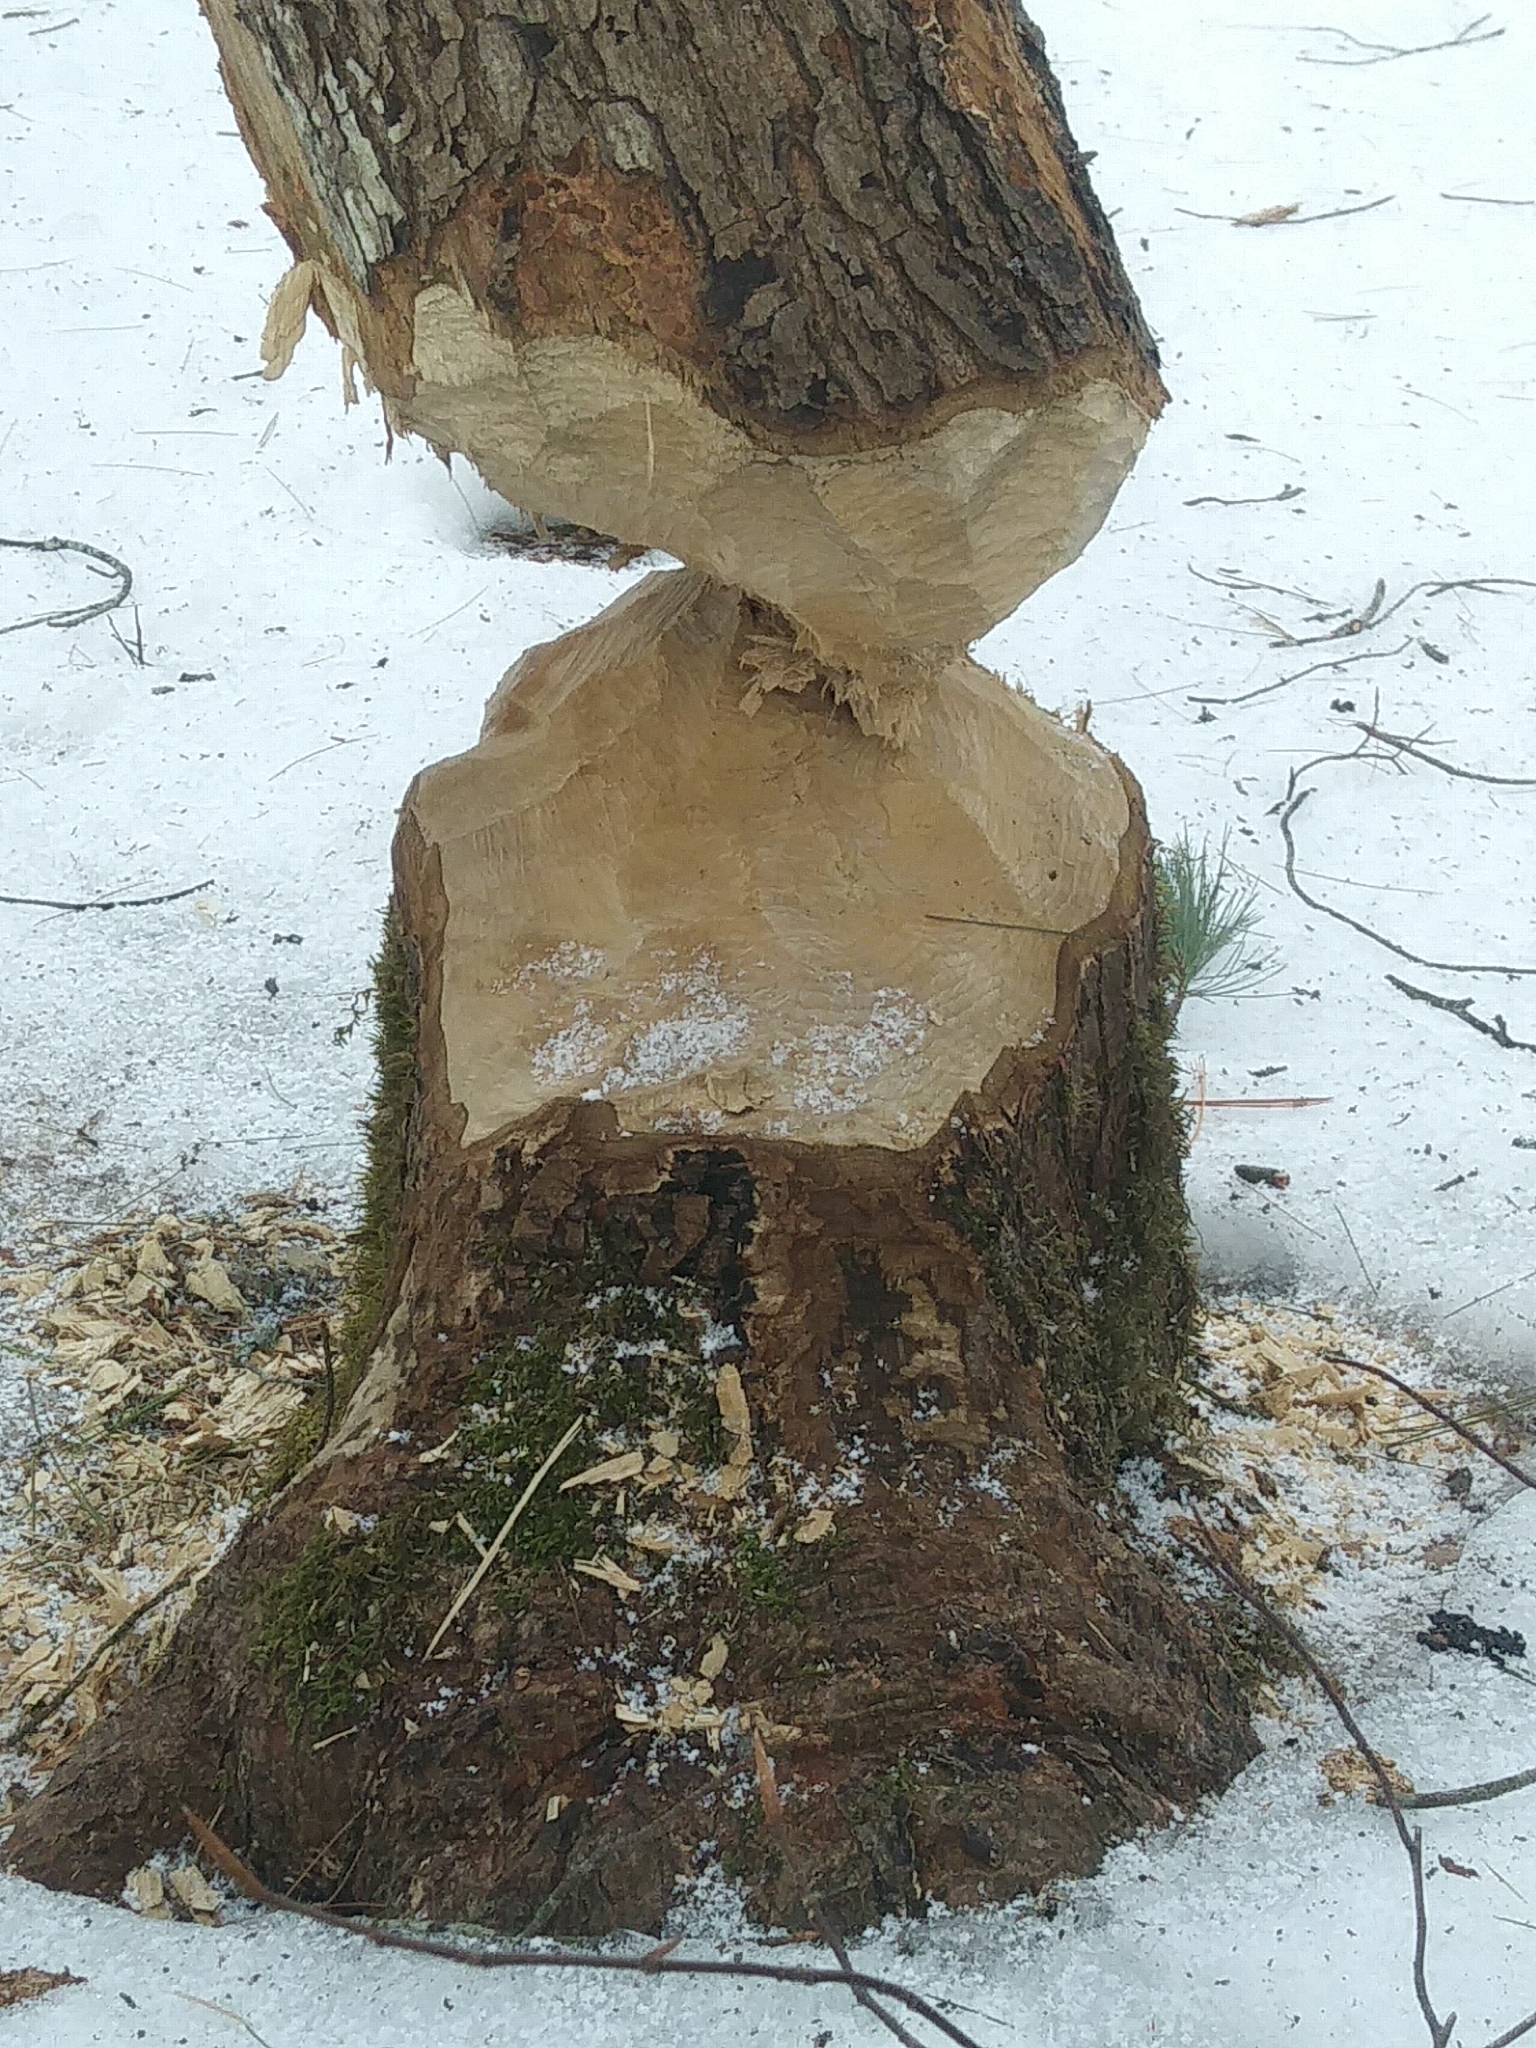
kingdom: Animalia
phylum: Chordata
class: Mammalia
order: Rodentia
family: Castoridae
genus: Castor
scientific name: Castor canadensis
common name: American beaver
